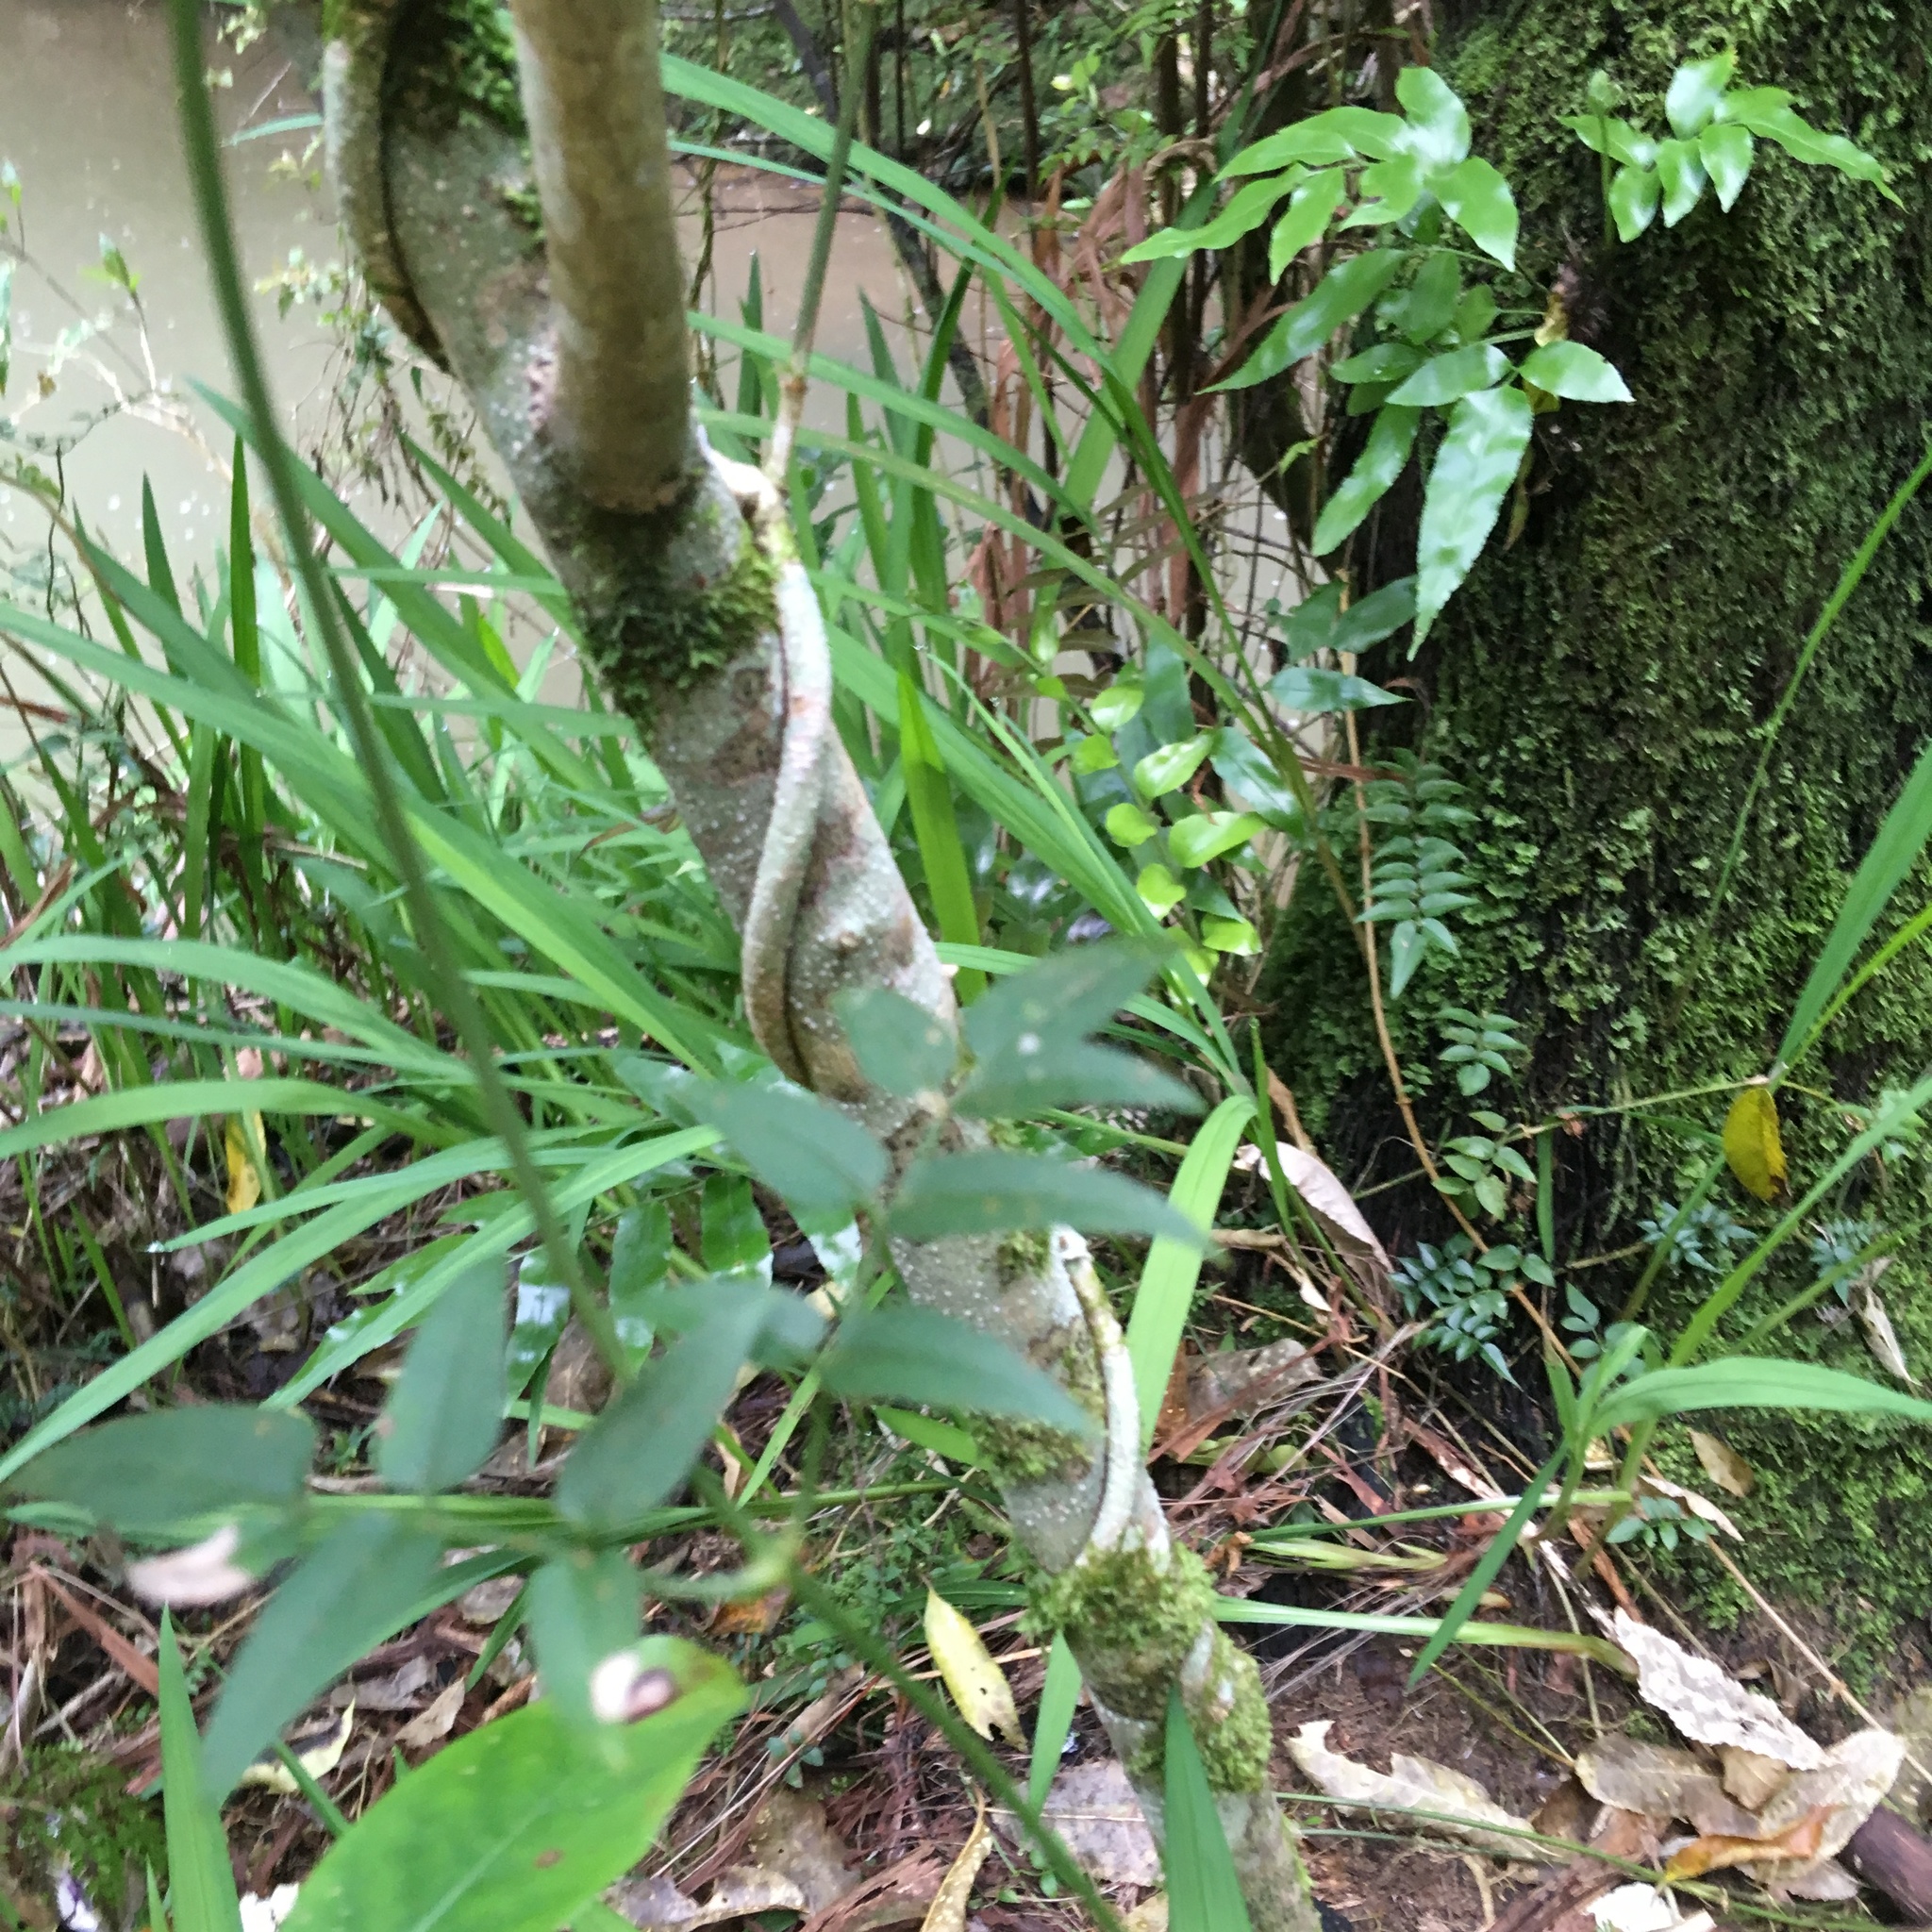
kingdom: Plantae
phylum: Tracheophyta
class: Polypodiopsida
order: Polypodiales
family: Polypodiaceae
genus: Lecanopteris
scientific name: Lecanopteris pustulata
